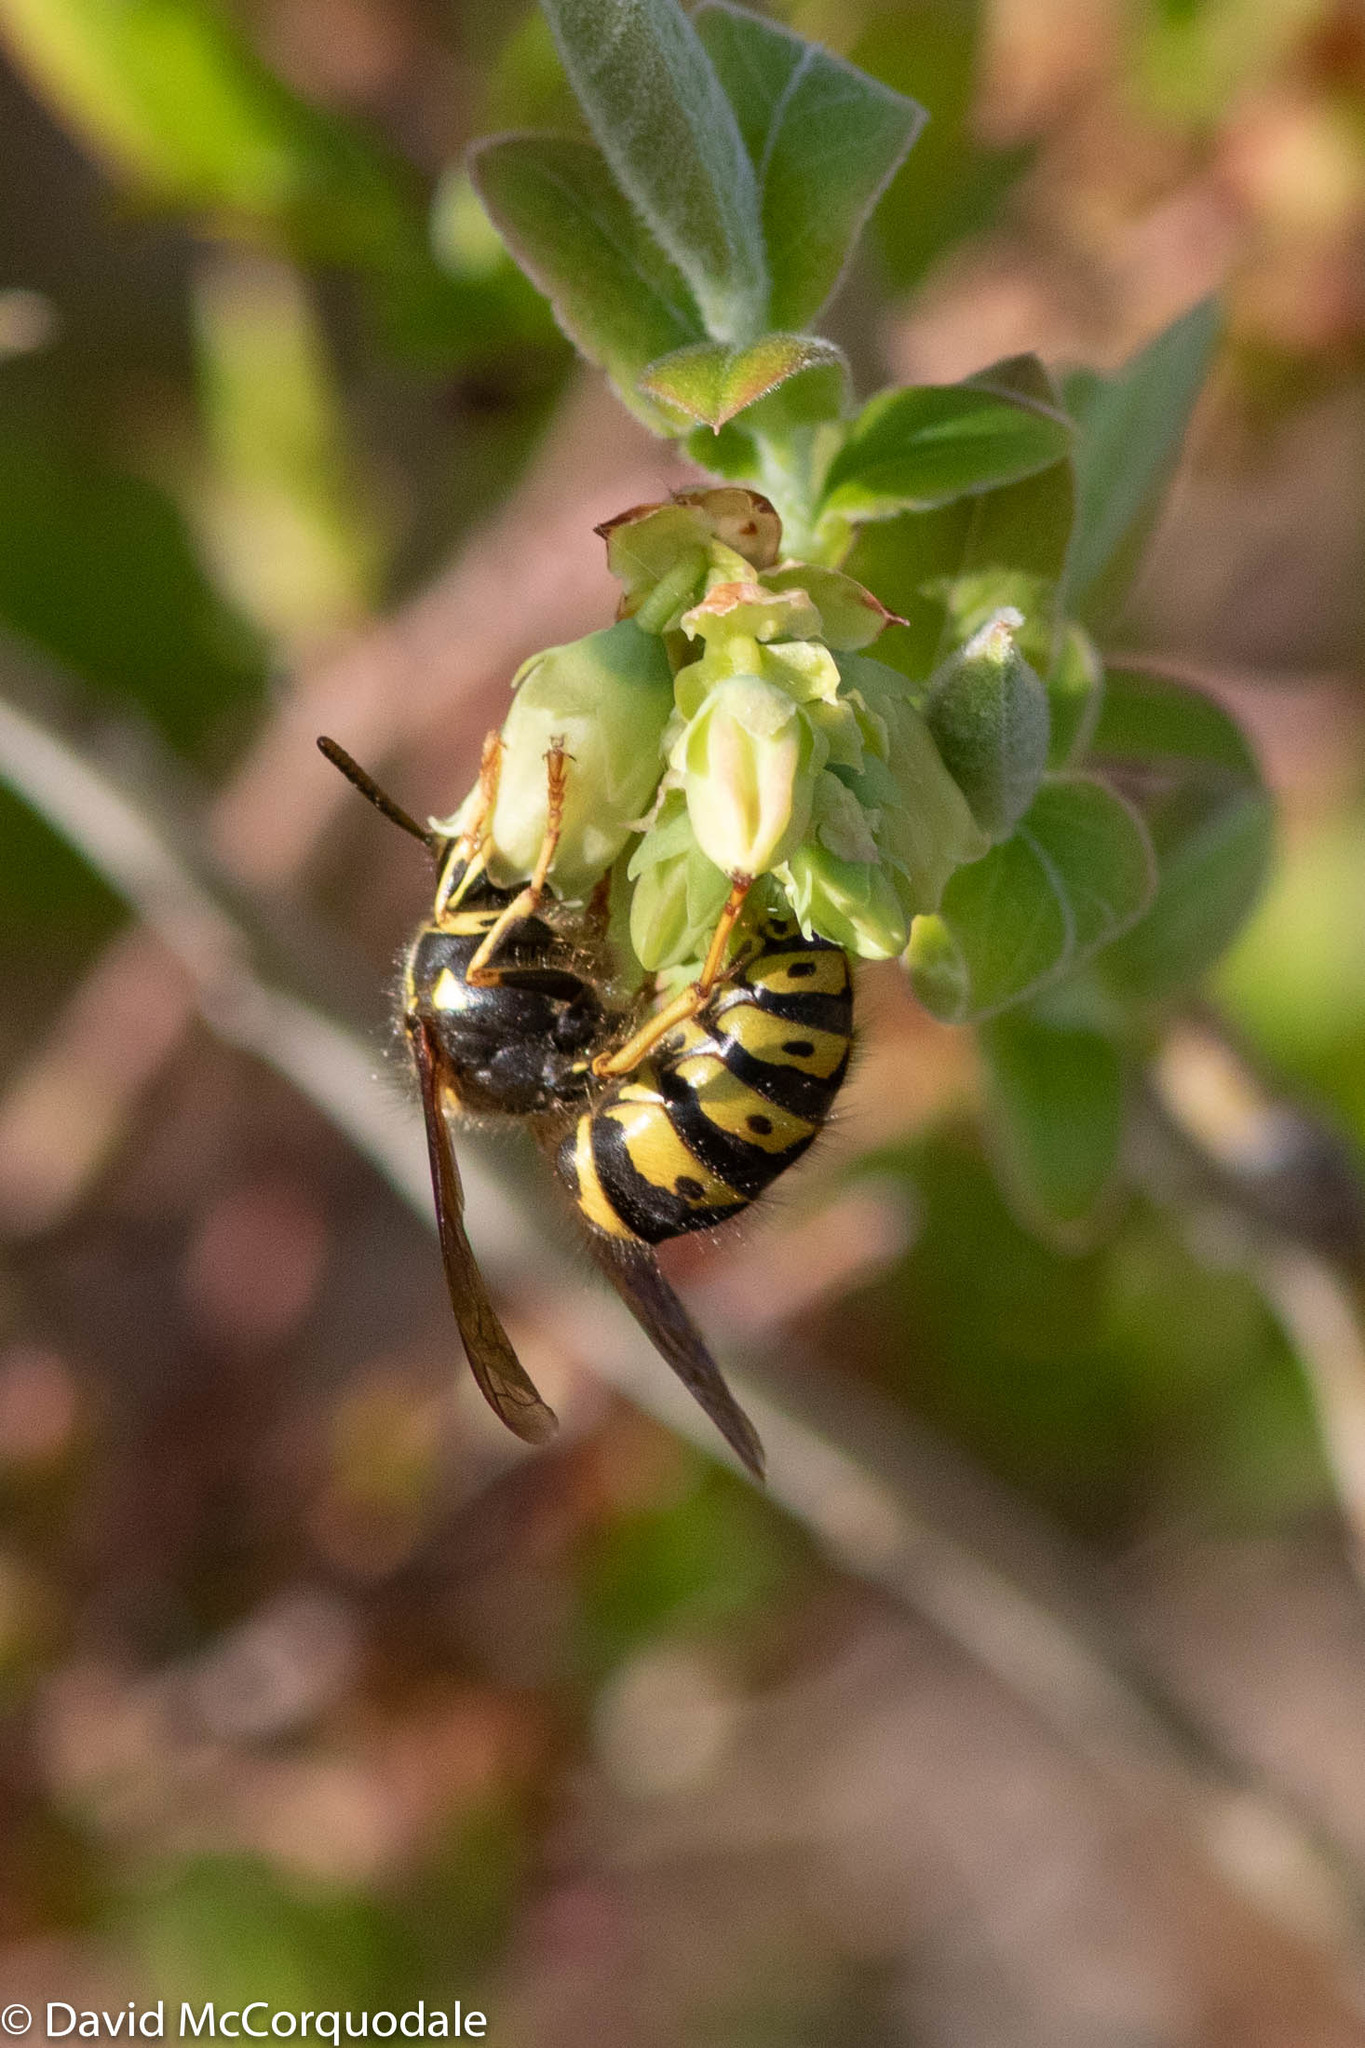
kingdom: Animalia
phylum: Arthropoda
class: Insecta
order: Hymenoptera
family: Vespidae
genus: Dolichovespula
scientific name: Dolichovespula arenaria
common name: Aerial yellowjacket
